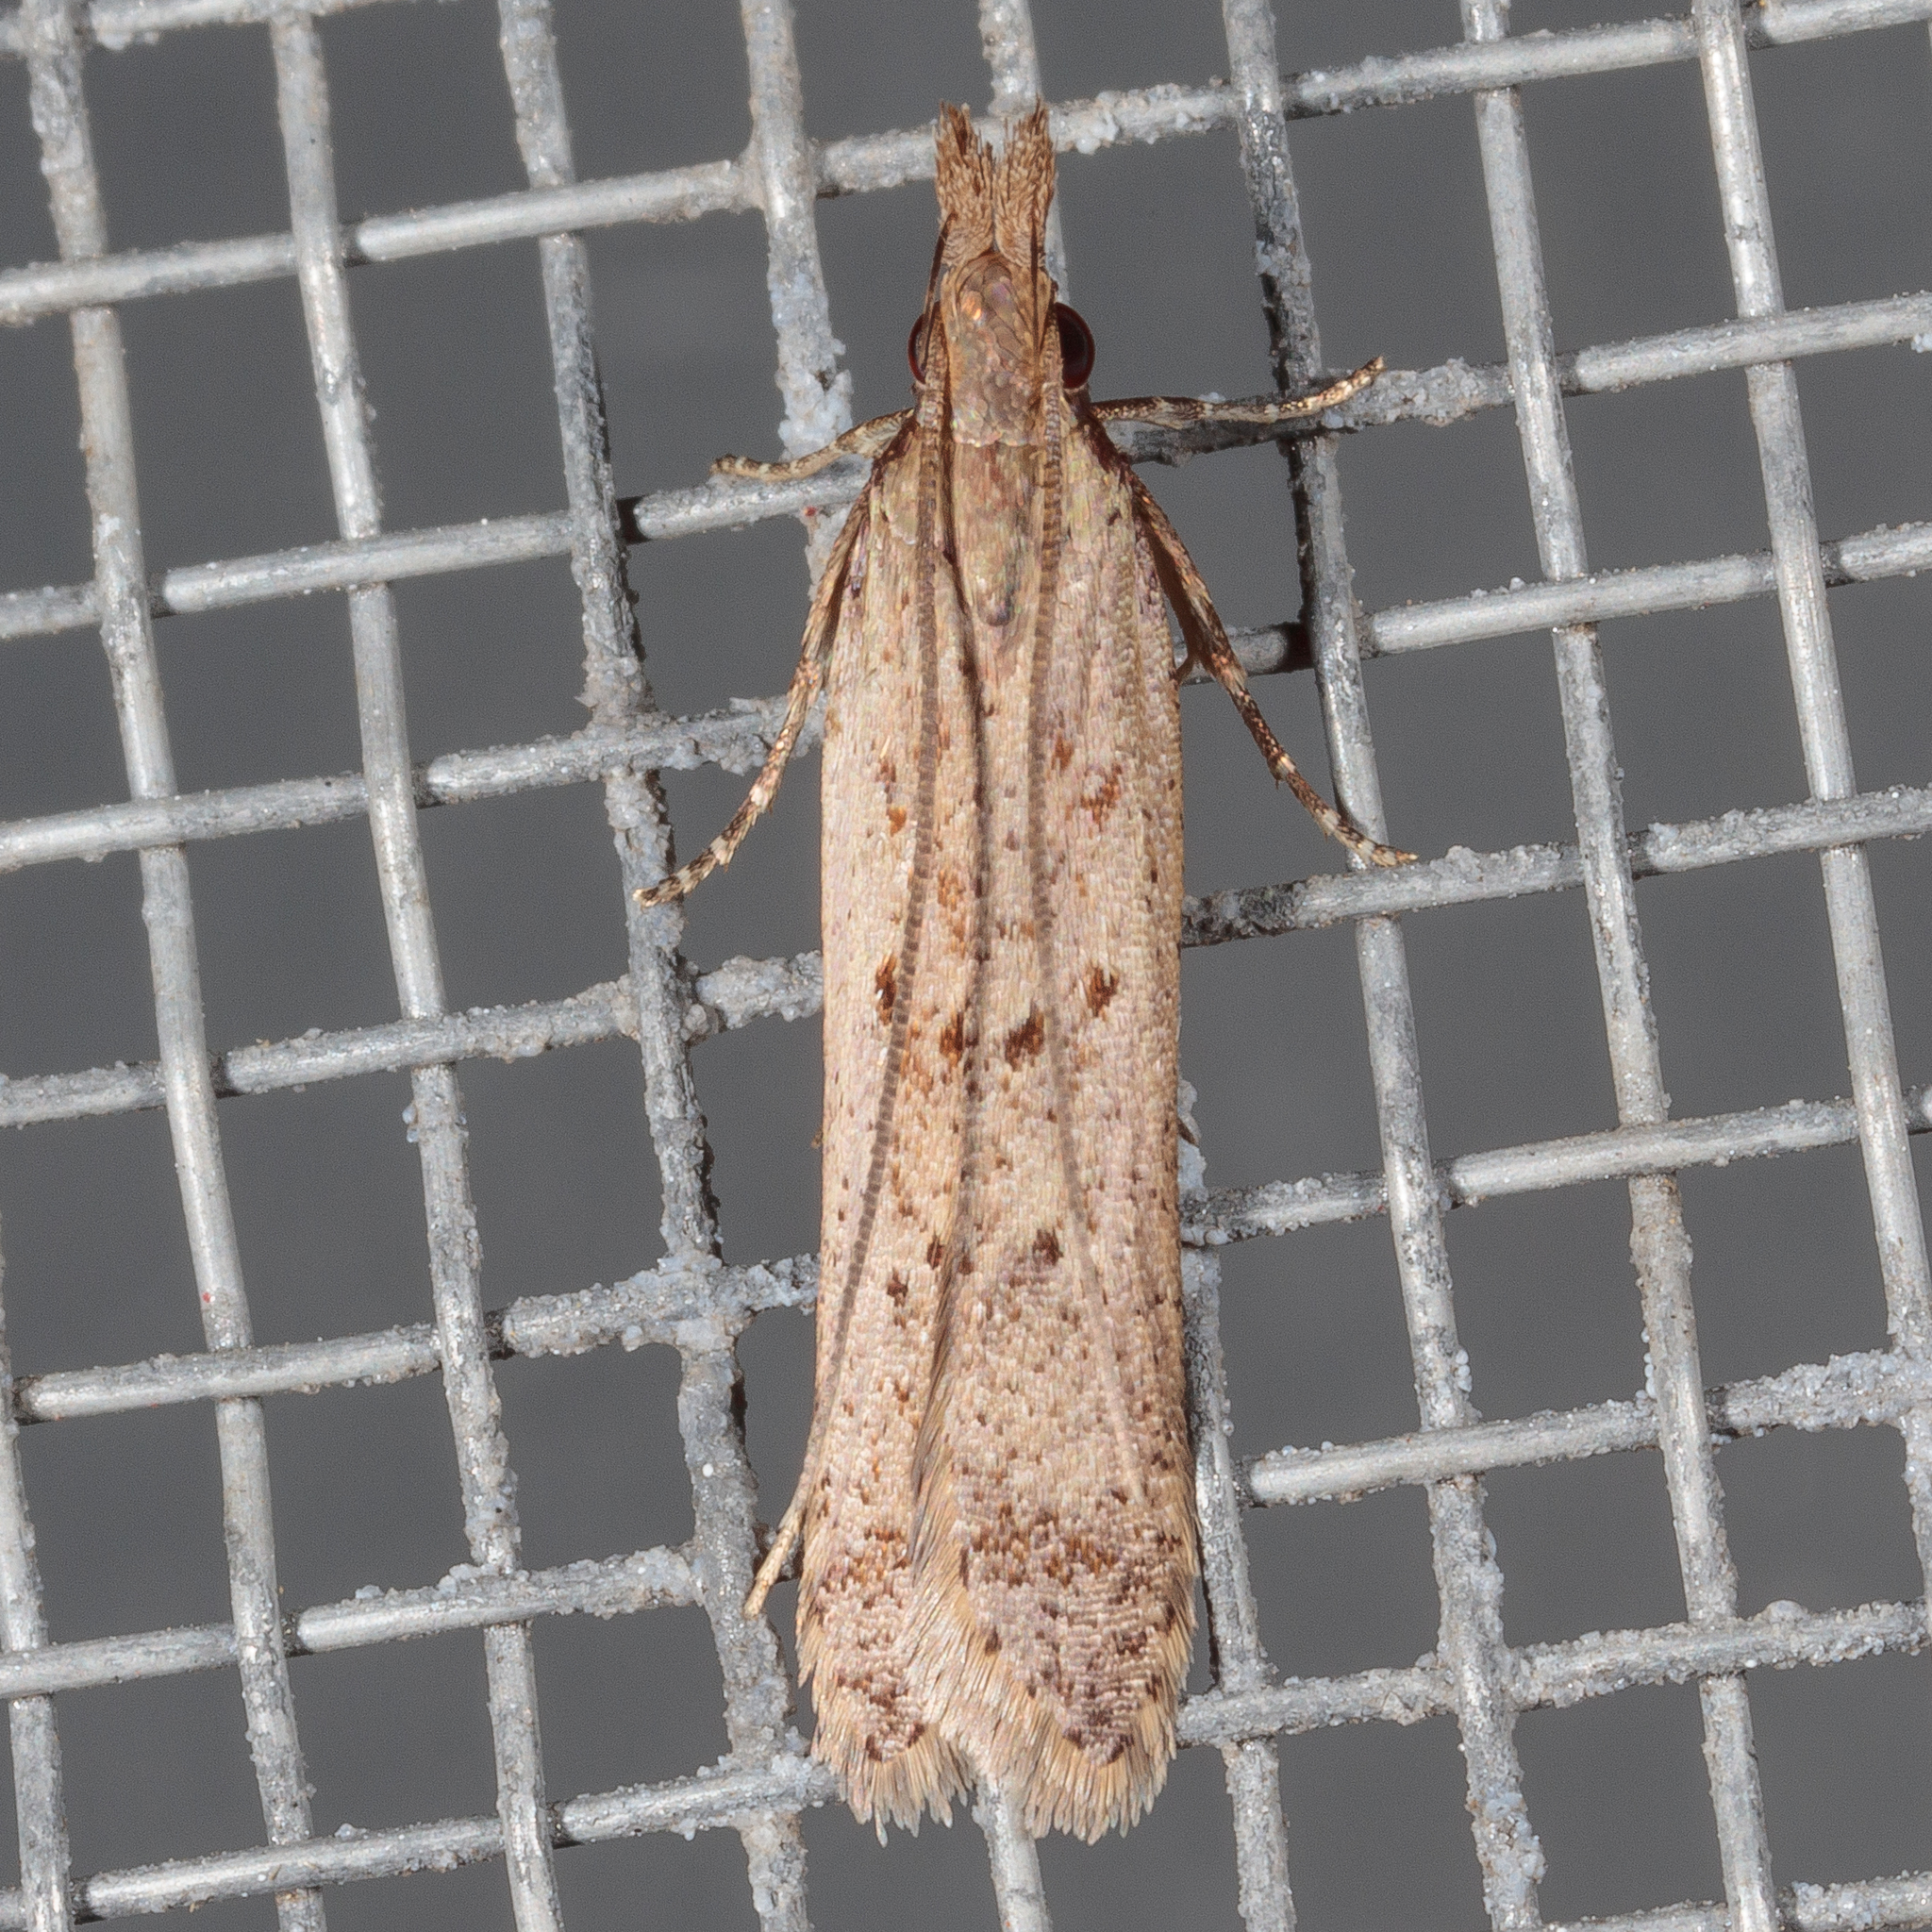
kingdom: Animalia
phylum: Arthropoda
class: Insecta
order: Lepidoptera
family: Gelechiidae
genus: Dichomeris
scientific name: Dichomeris ligulella
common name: Moth
